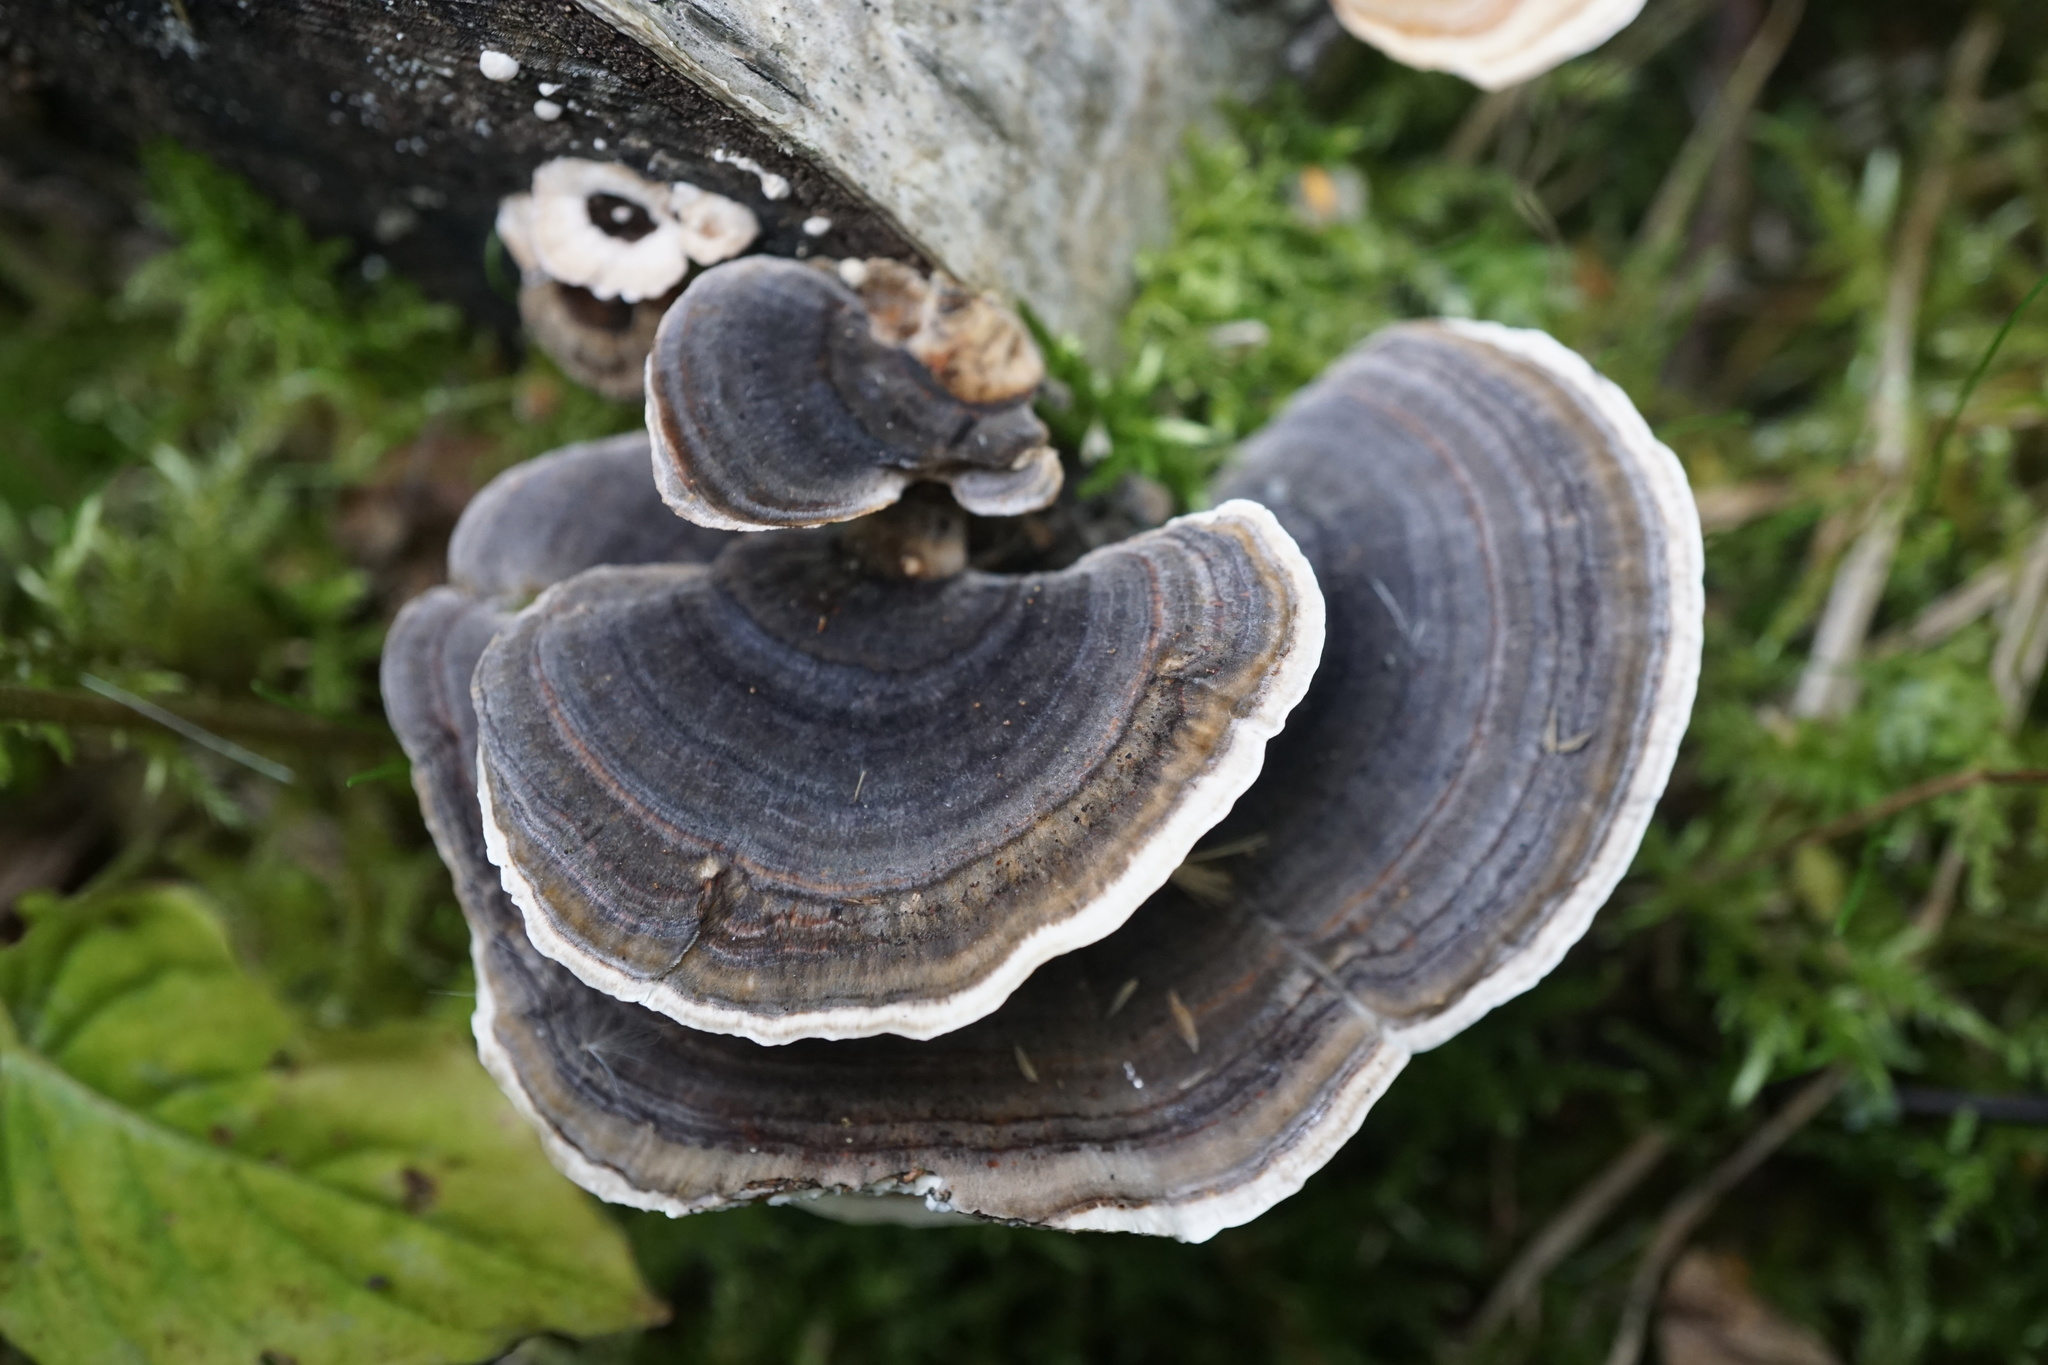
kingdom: Fungi
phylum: Basidiomycota
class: Agaricomycetes
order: Polyporales
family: Polyporaceae
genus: Trametes
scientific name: Trametes versicolor
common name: Turkeytail
